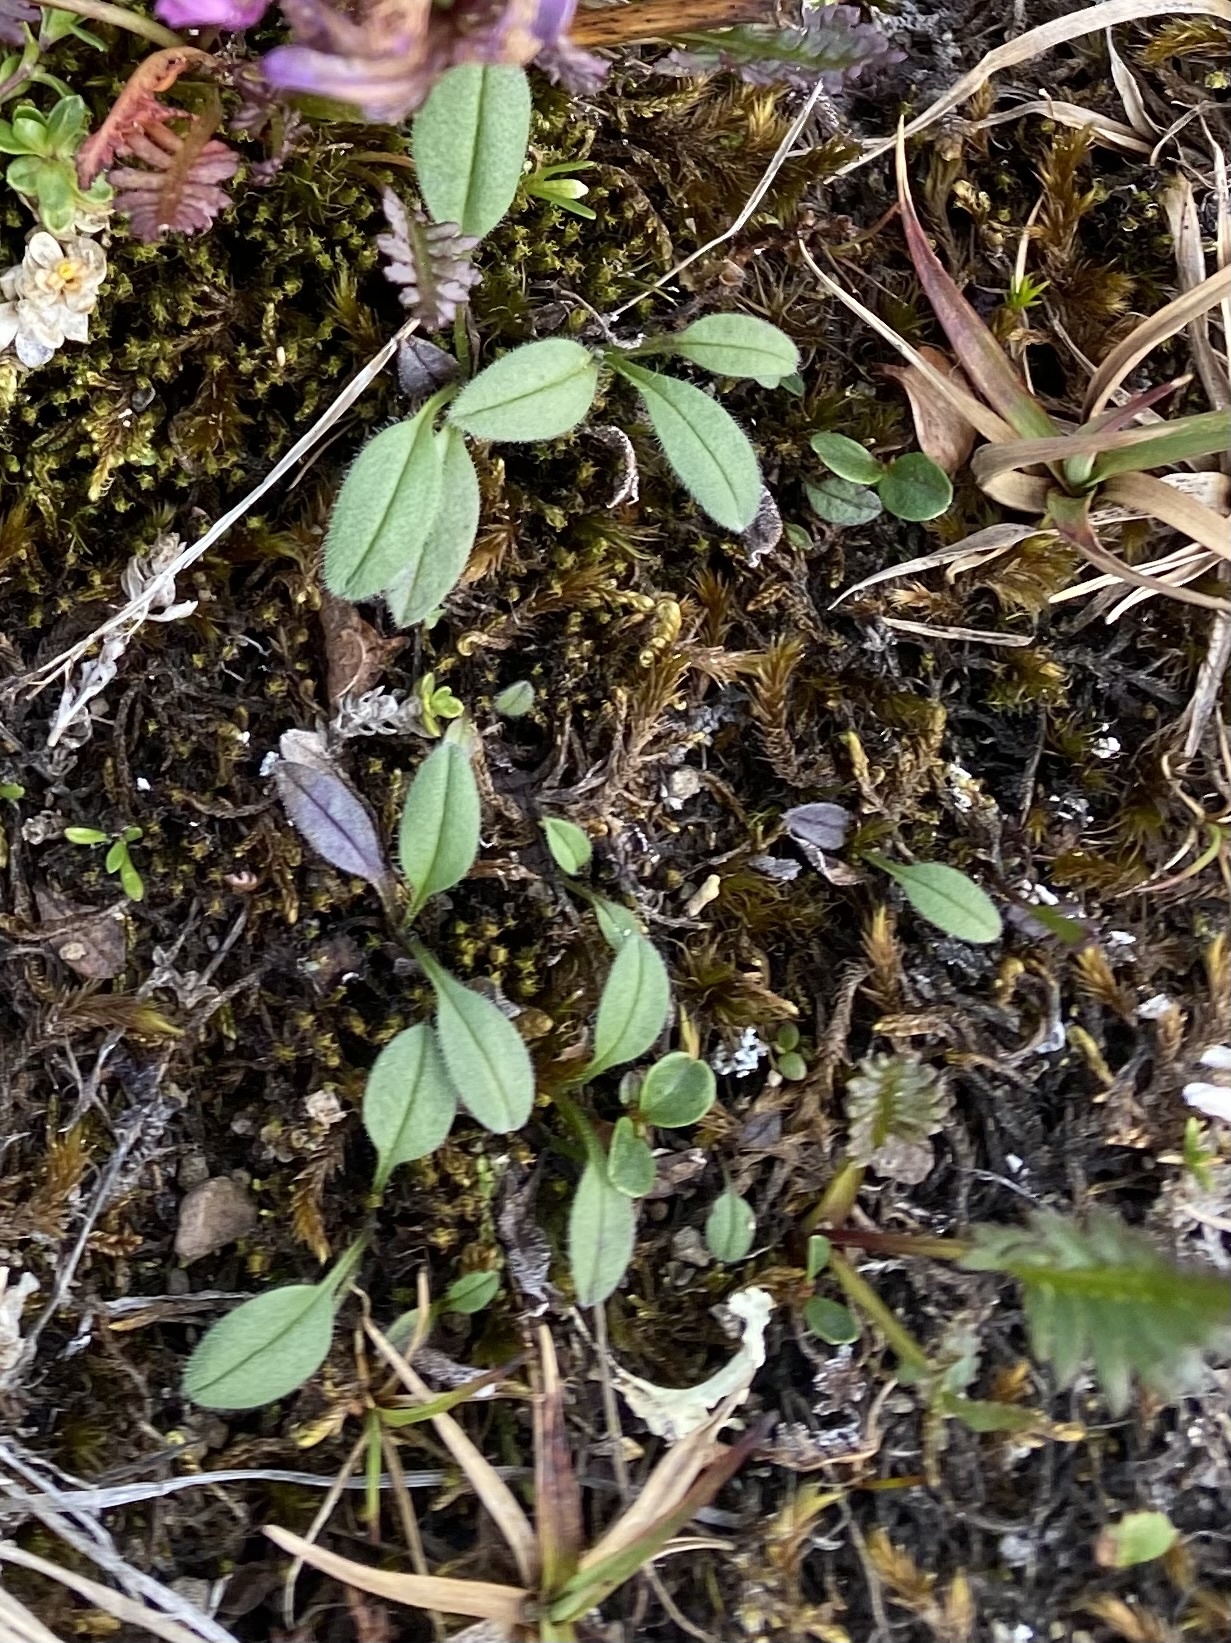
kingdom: Plantae
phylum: Tracheophyta
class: Magnoliopsida
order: Boraginales
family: Boraginaceae
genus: Myosotis
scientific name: Myosotis asiatica
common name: Asian forget-me-not
